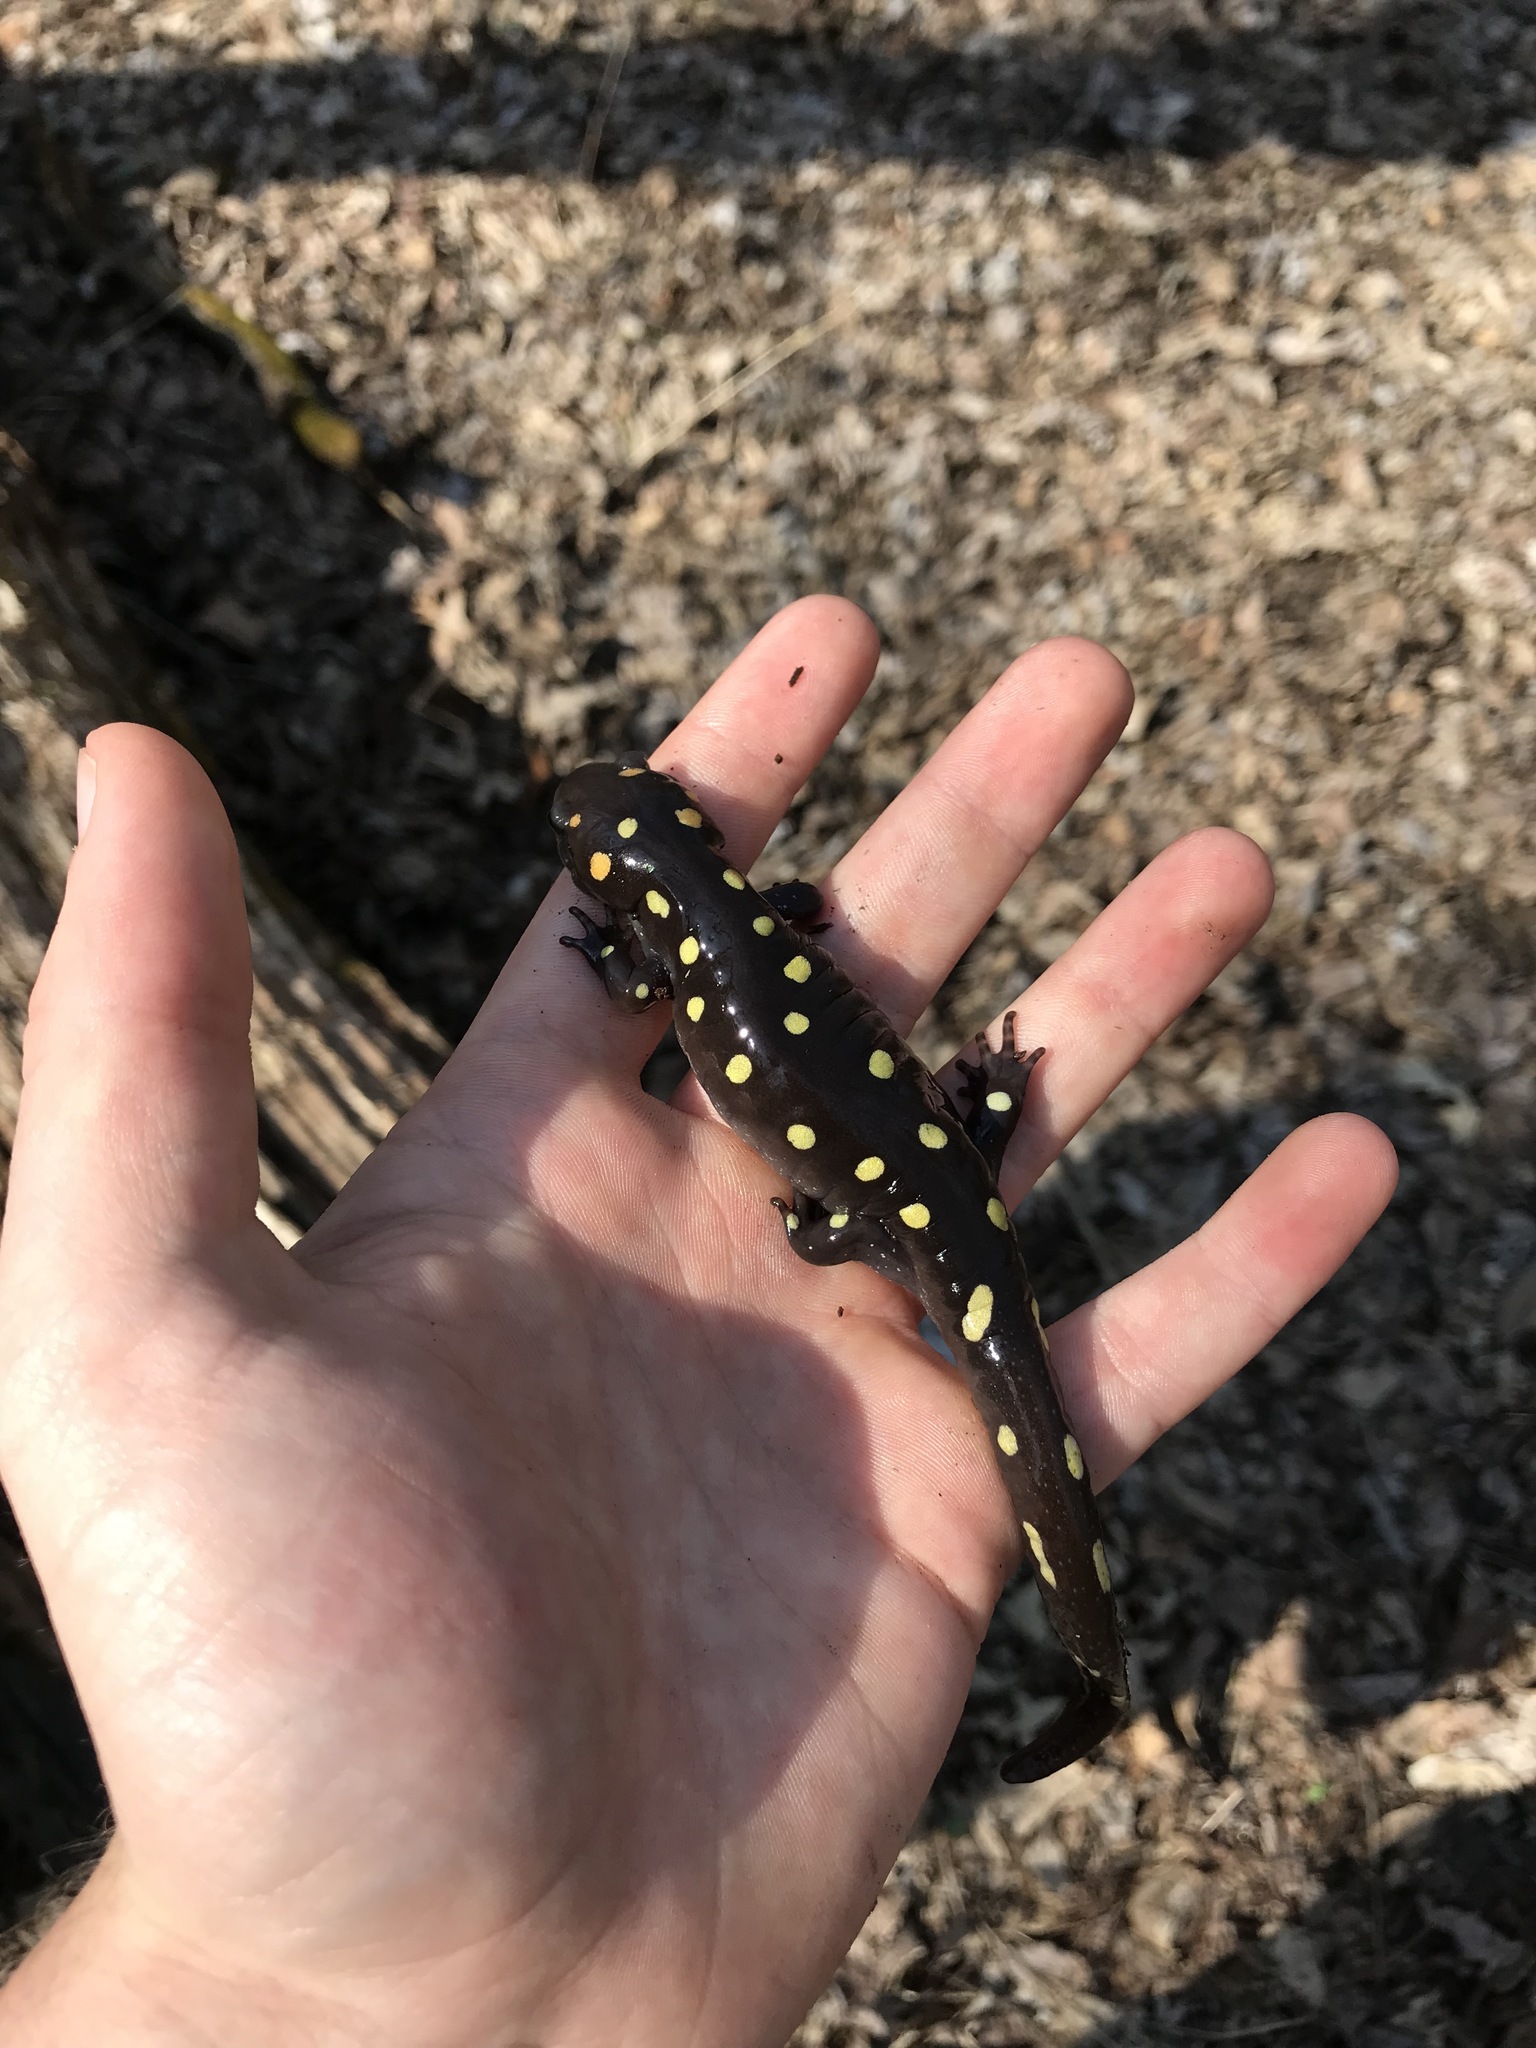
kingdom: Animalia
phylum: Chordata
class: Amphibia
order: Caudata
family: Ambystomatidae
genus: Ambystoma
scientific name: Ambystoma maculatum
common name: Spotted salamander
